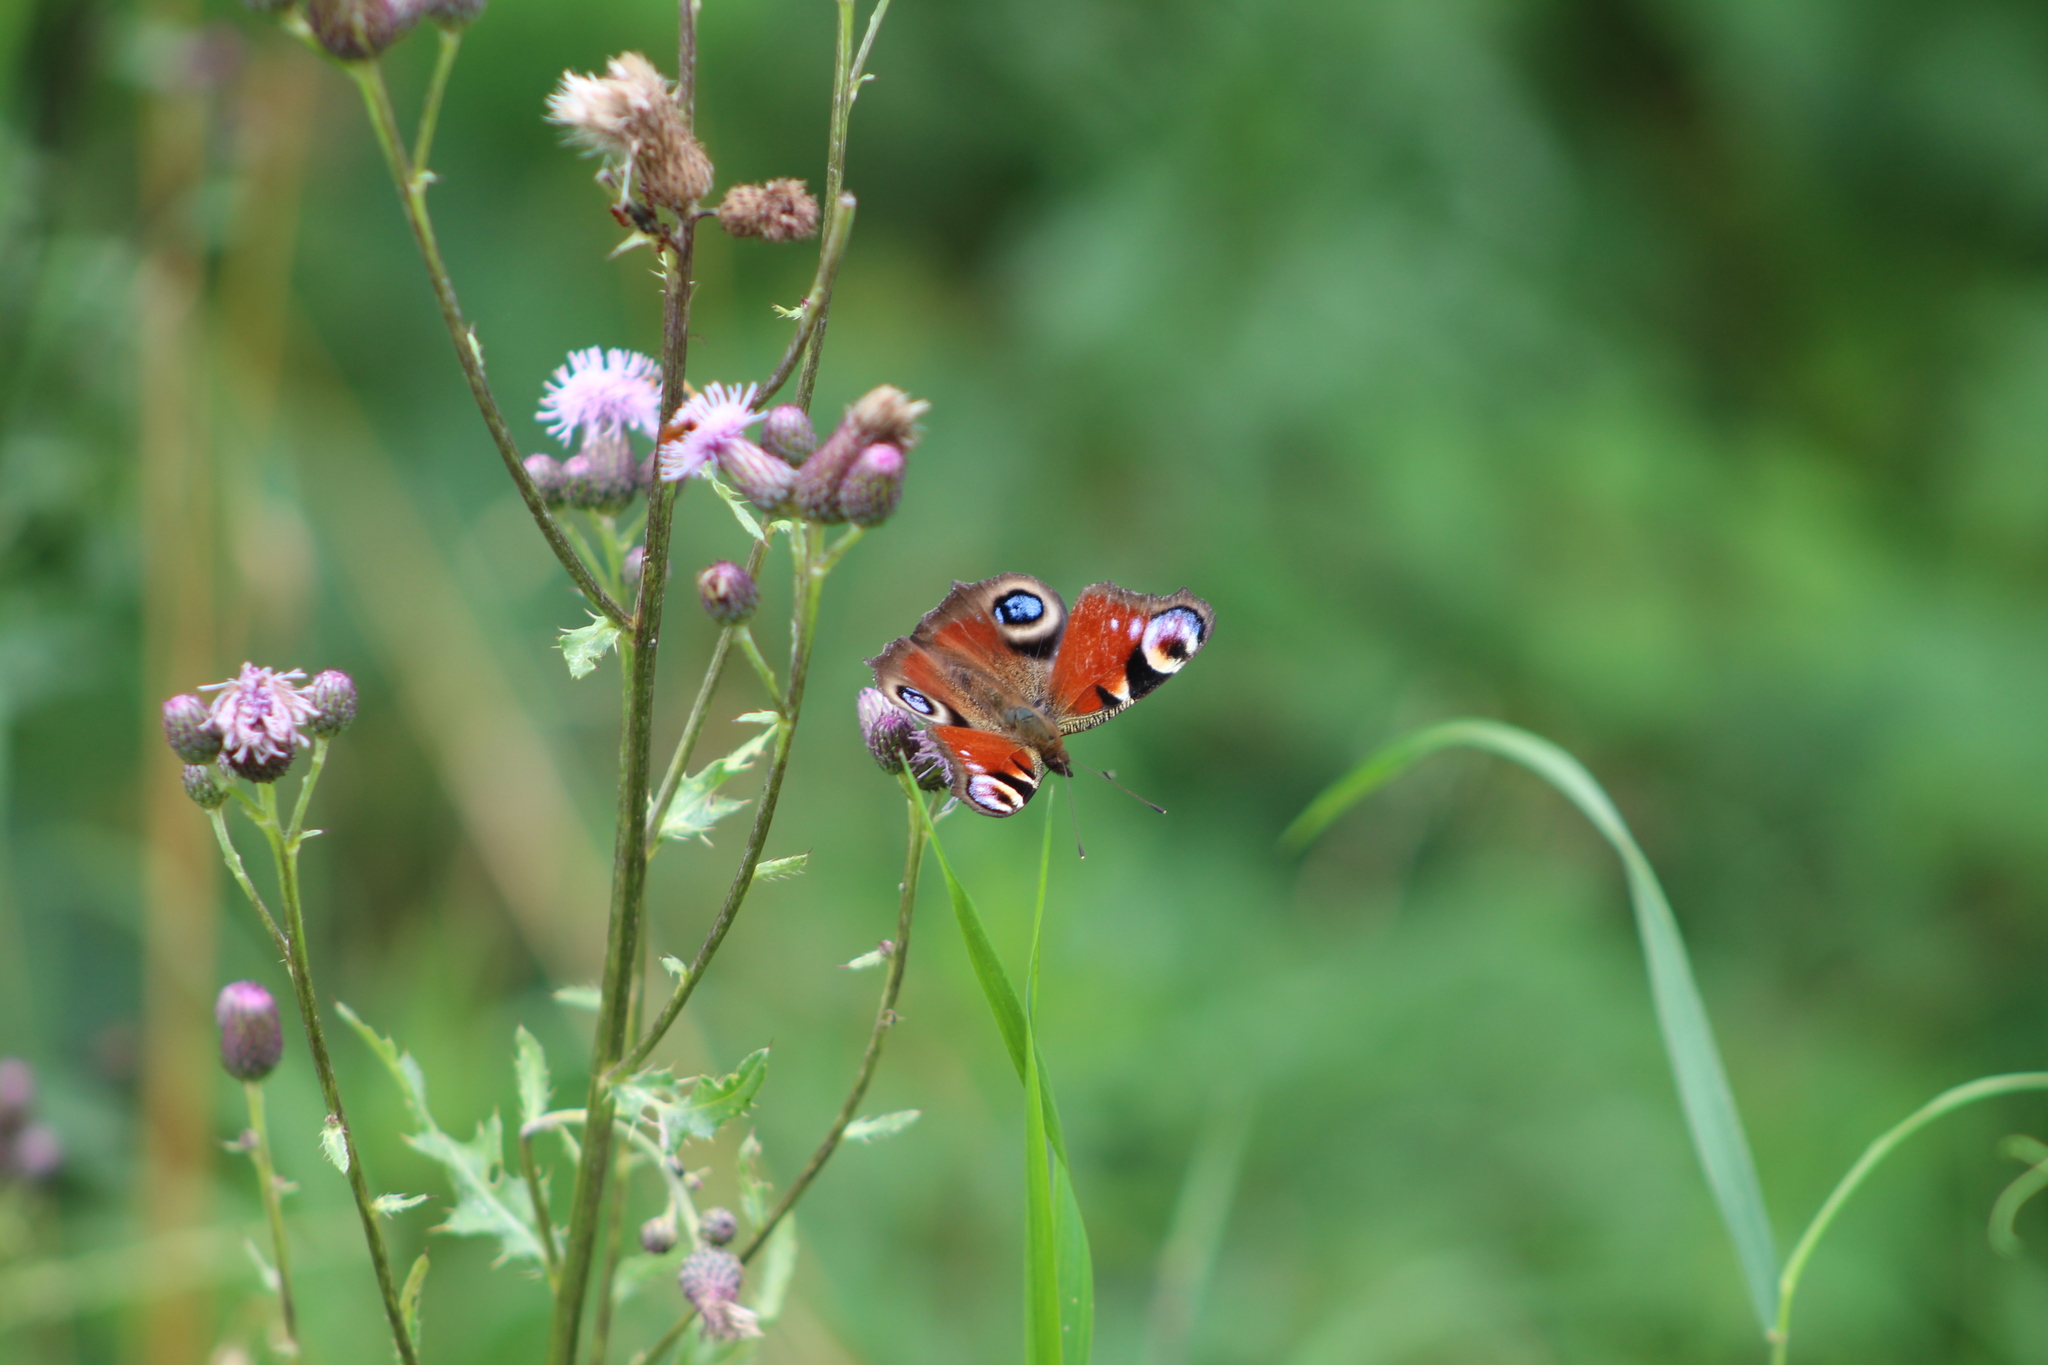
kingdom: Animalia
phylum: Arthropoda
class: Insecta
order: Lepidoptera
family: Nymphalidae
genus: Aglais
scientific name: Aglais io
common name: Peacock
